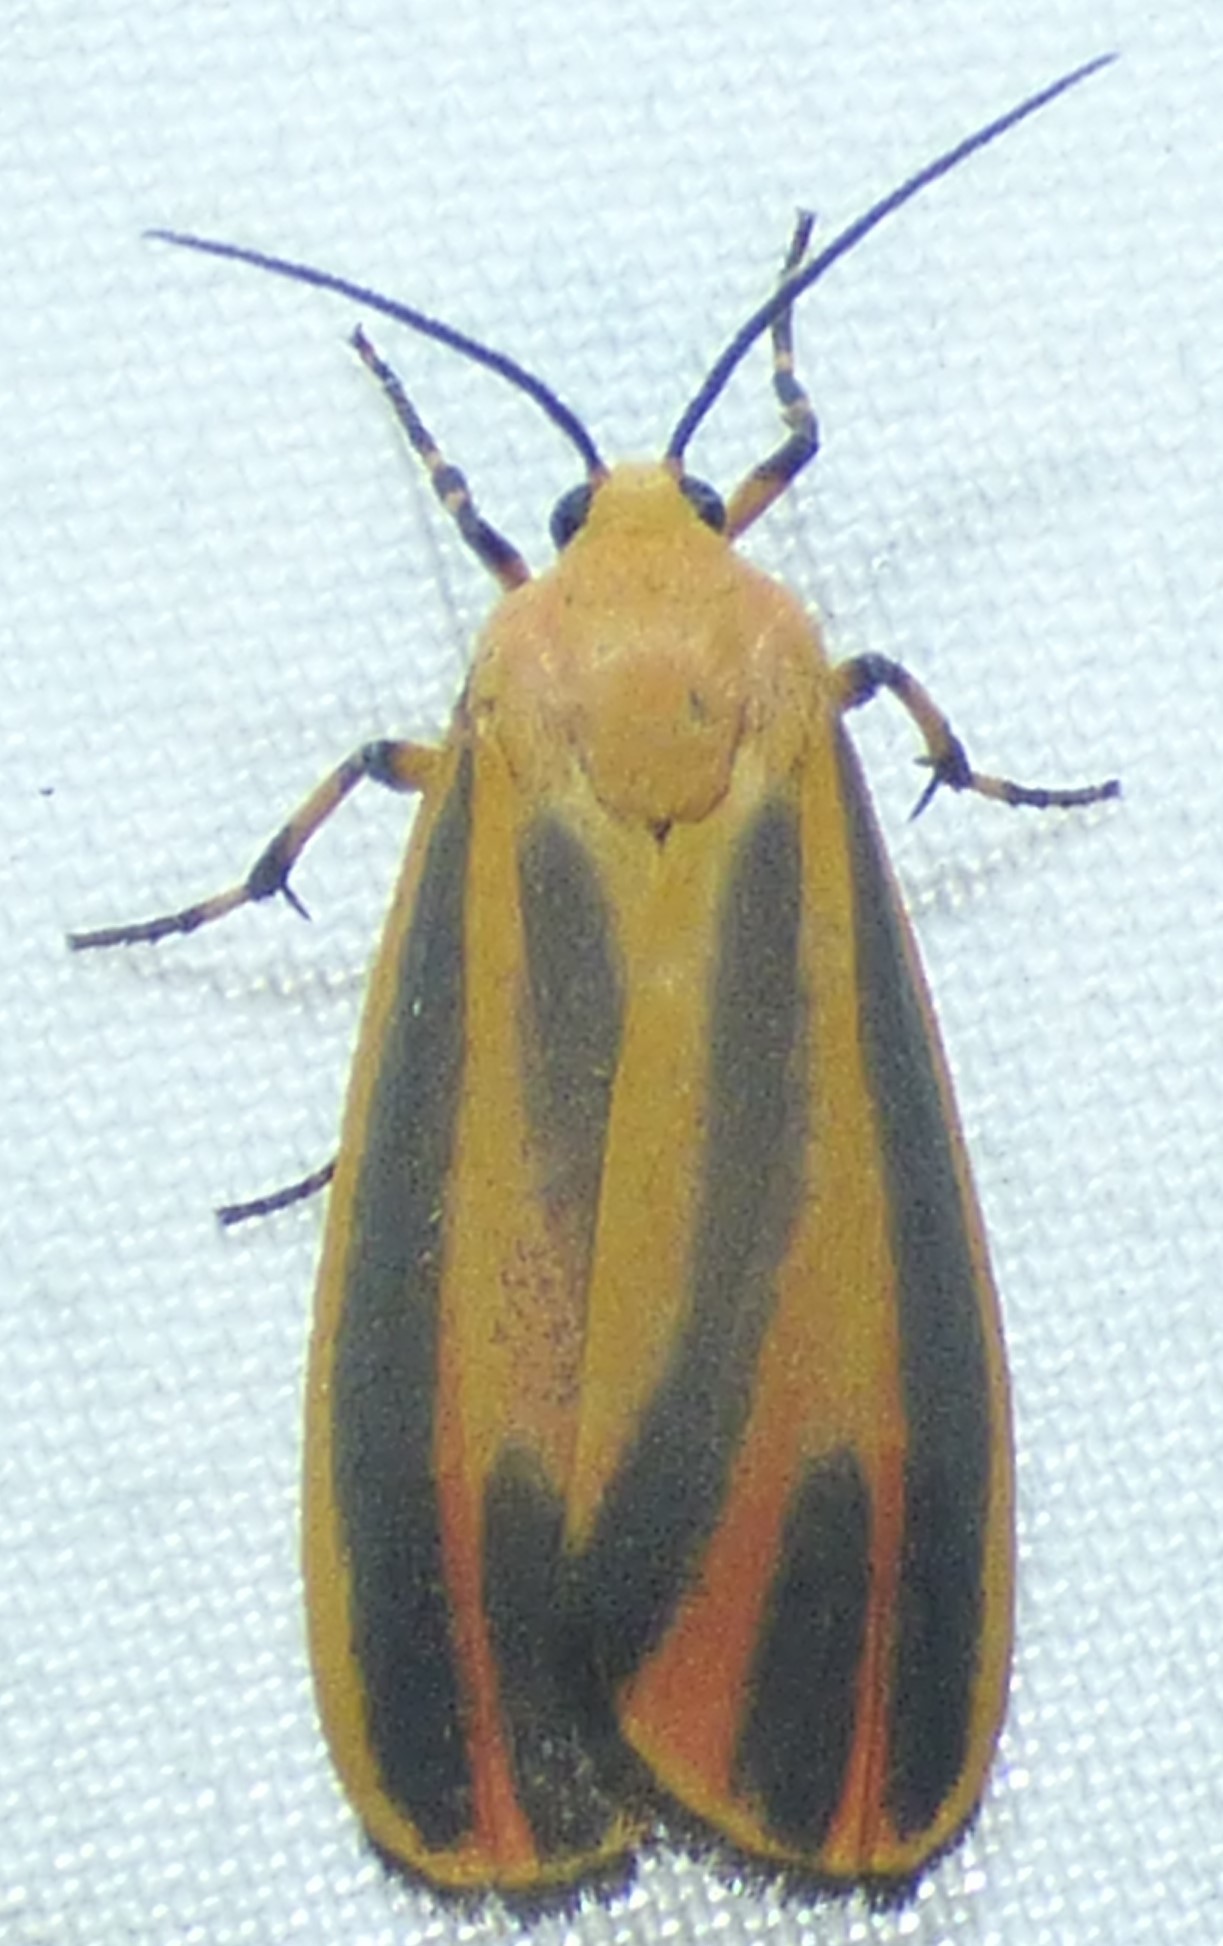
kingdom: Animalia
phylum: Arthropoda
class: Insecta
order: Lepidoptera
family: Erebidae
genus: Hypoprepia
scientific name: Hypoprepia fucosa
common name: Painted lichen moth
